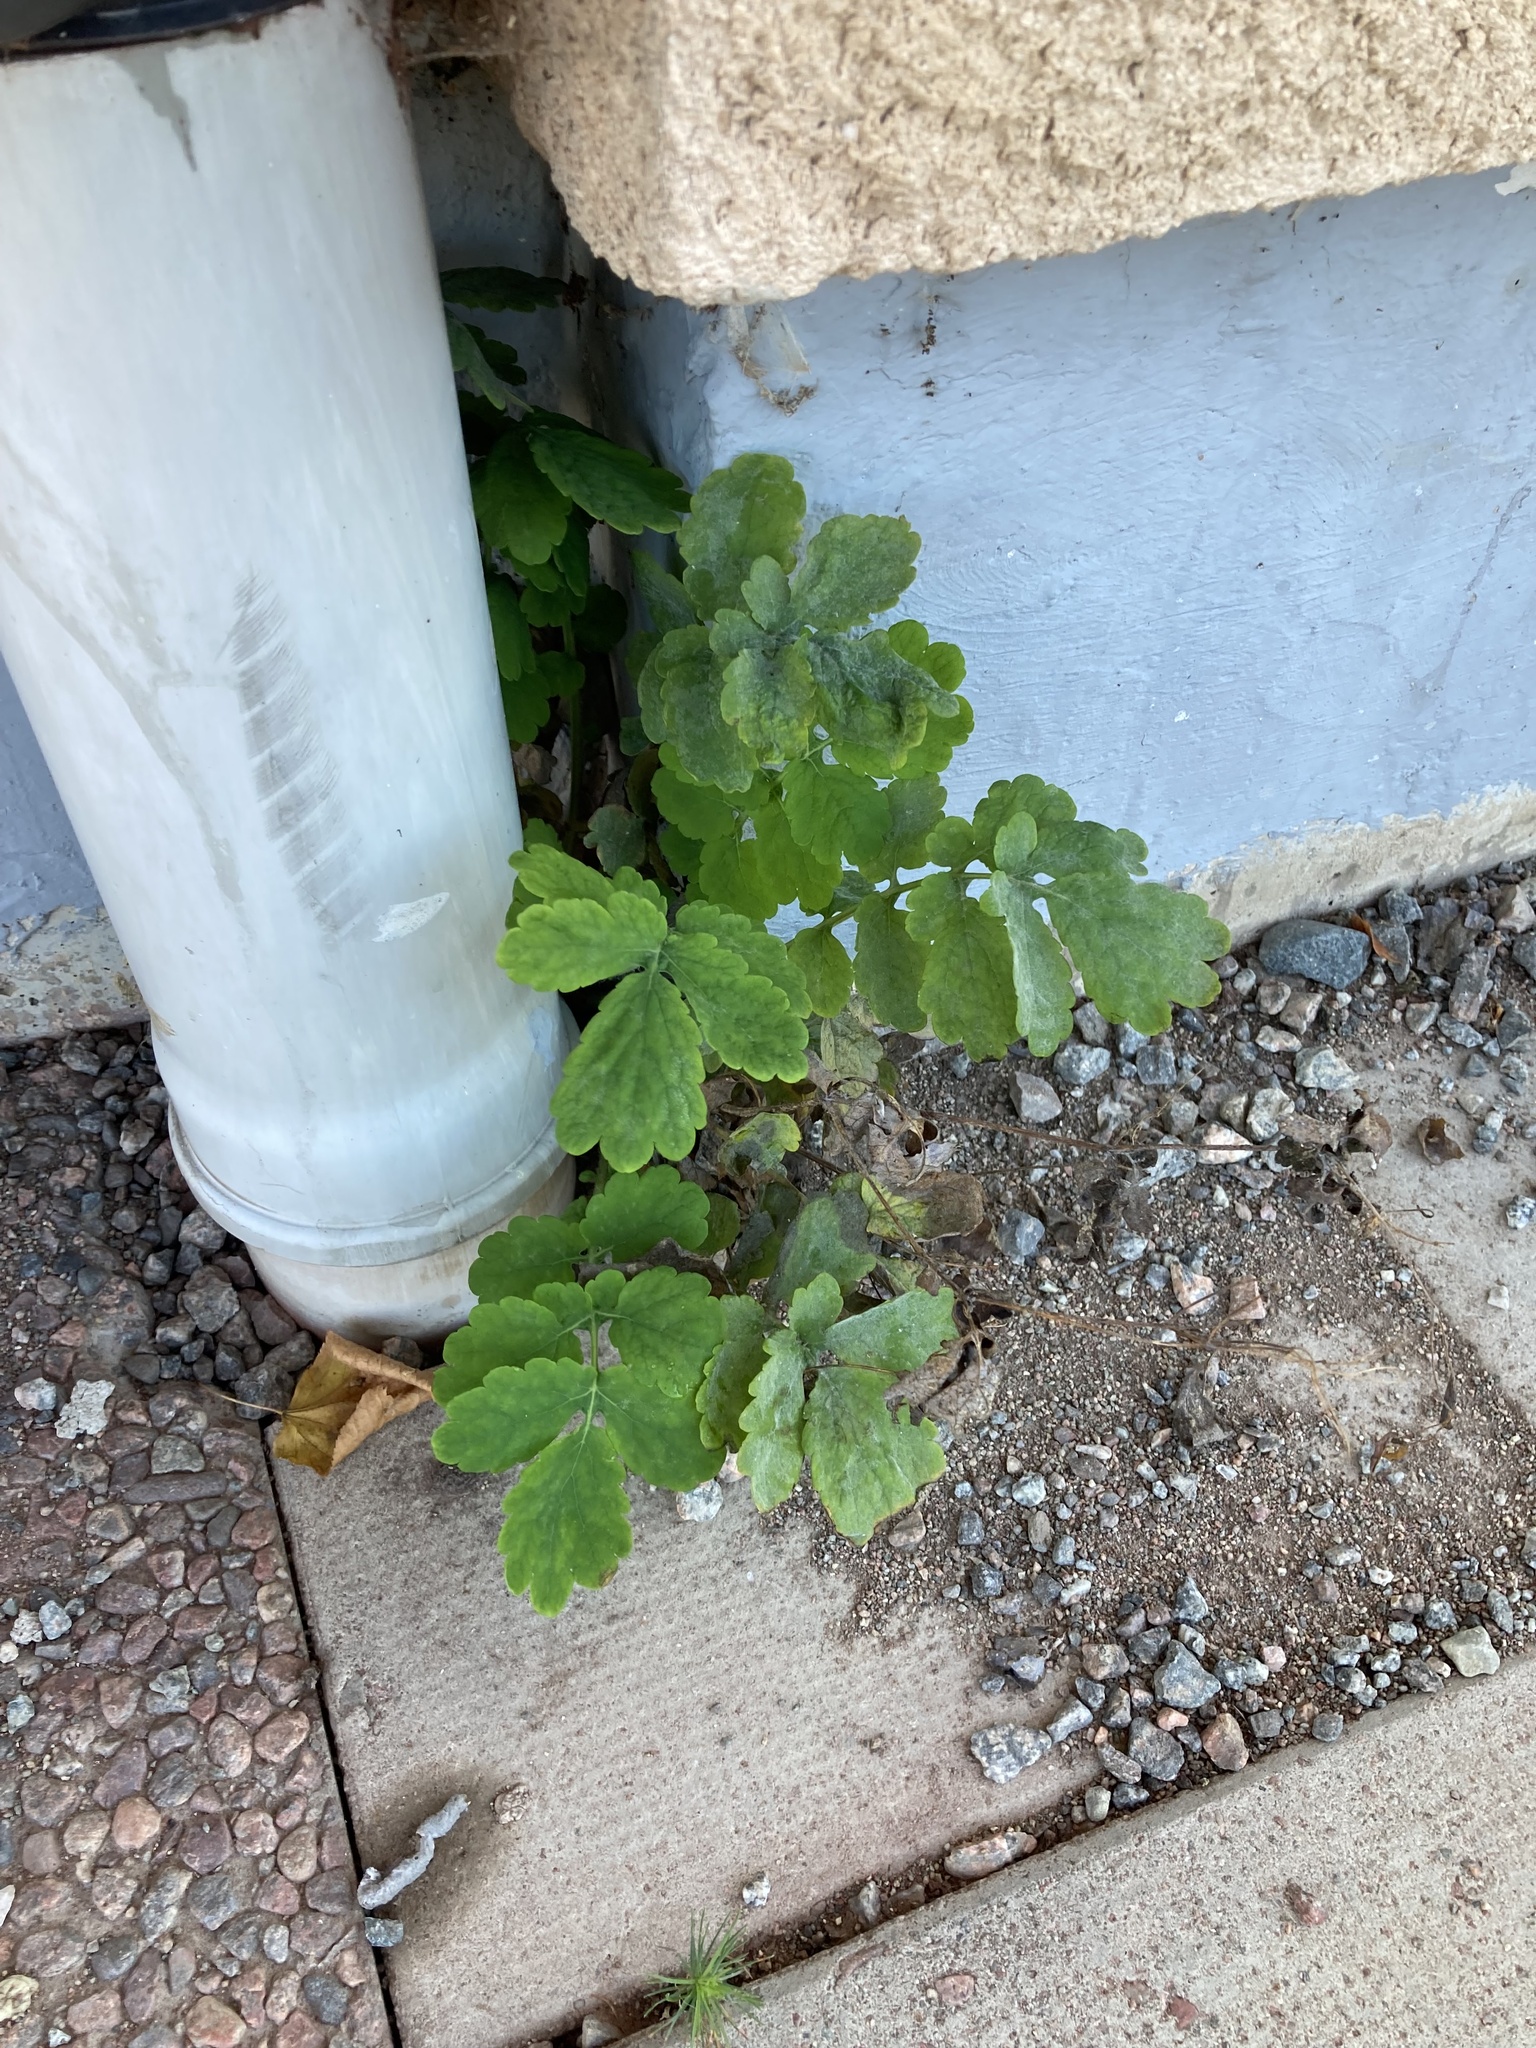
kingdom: Plantae
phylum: Tracheophyta
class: Magnoliopsida
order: Ranunculales
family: Papaveraceae
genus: Chelidonium
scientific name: Chelidonium majus
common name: Greater celandine
